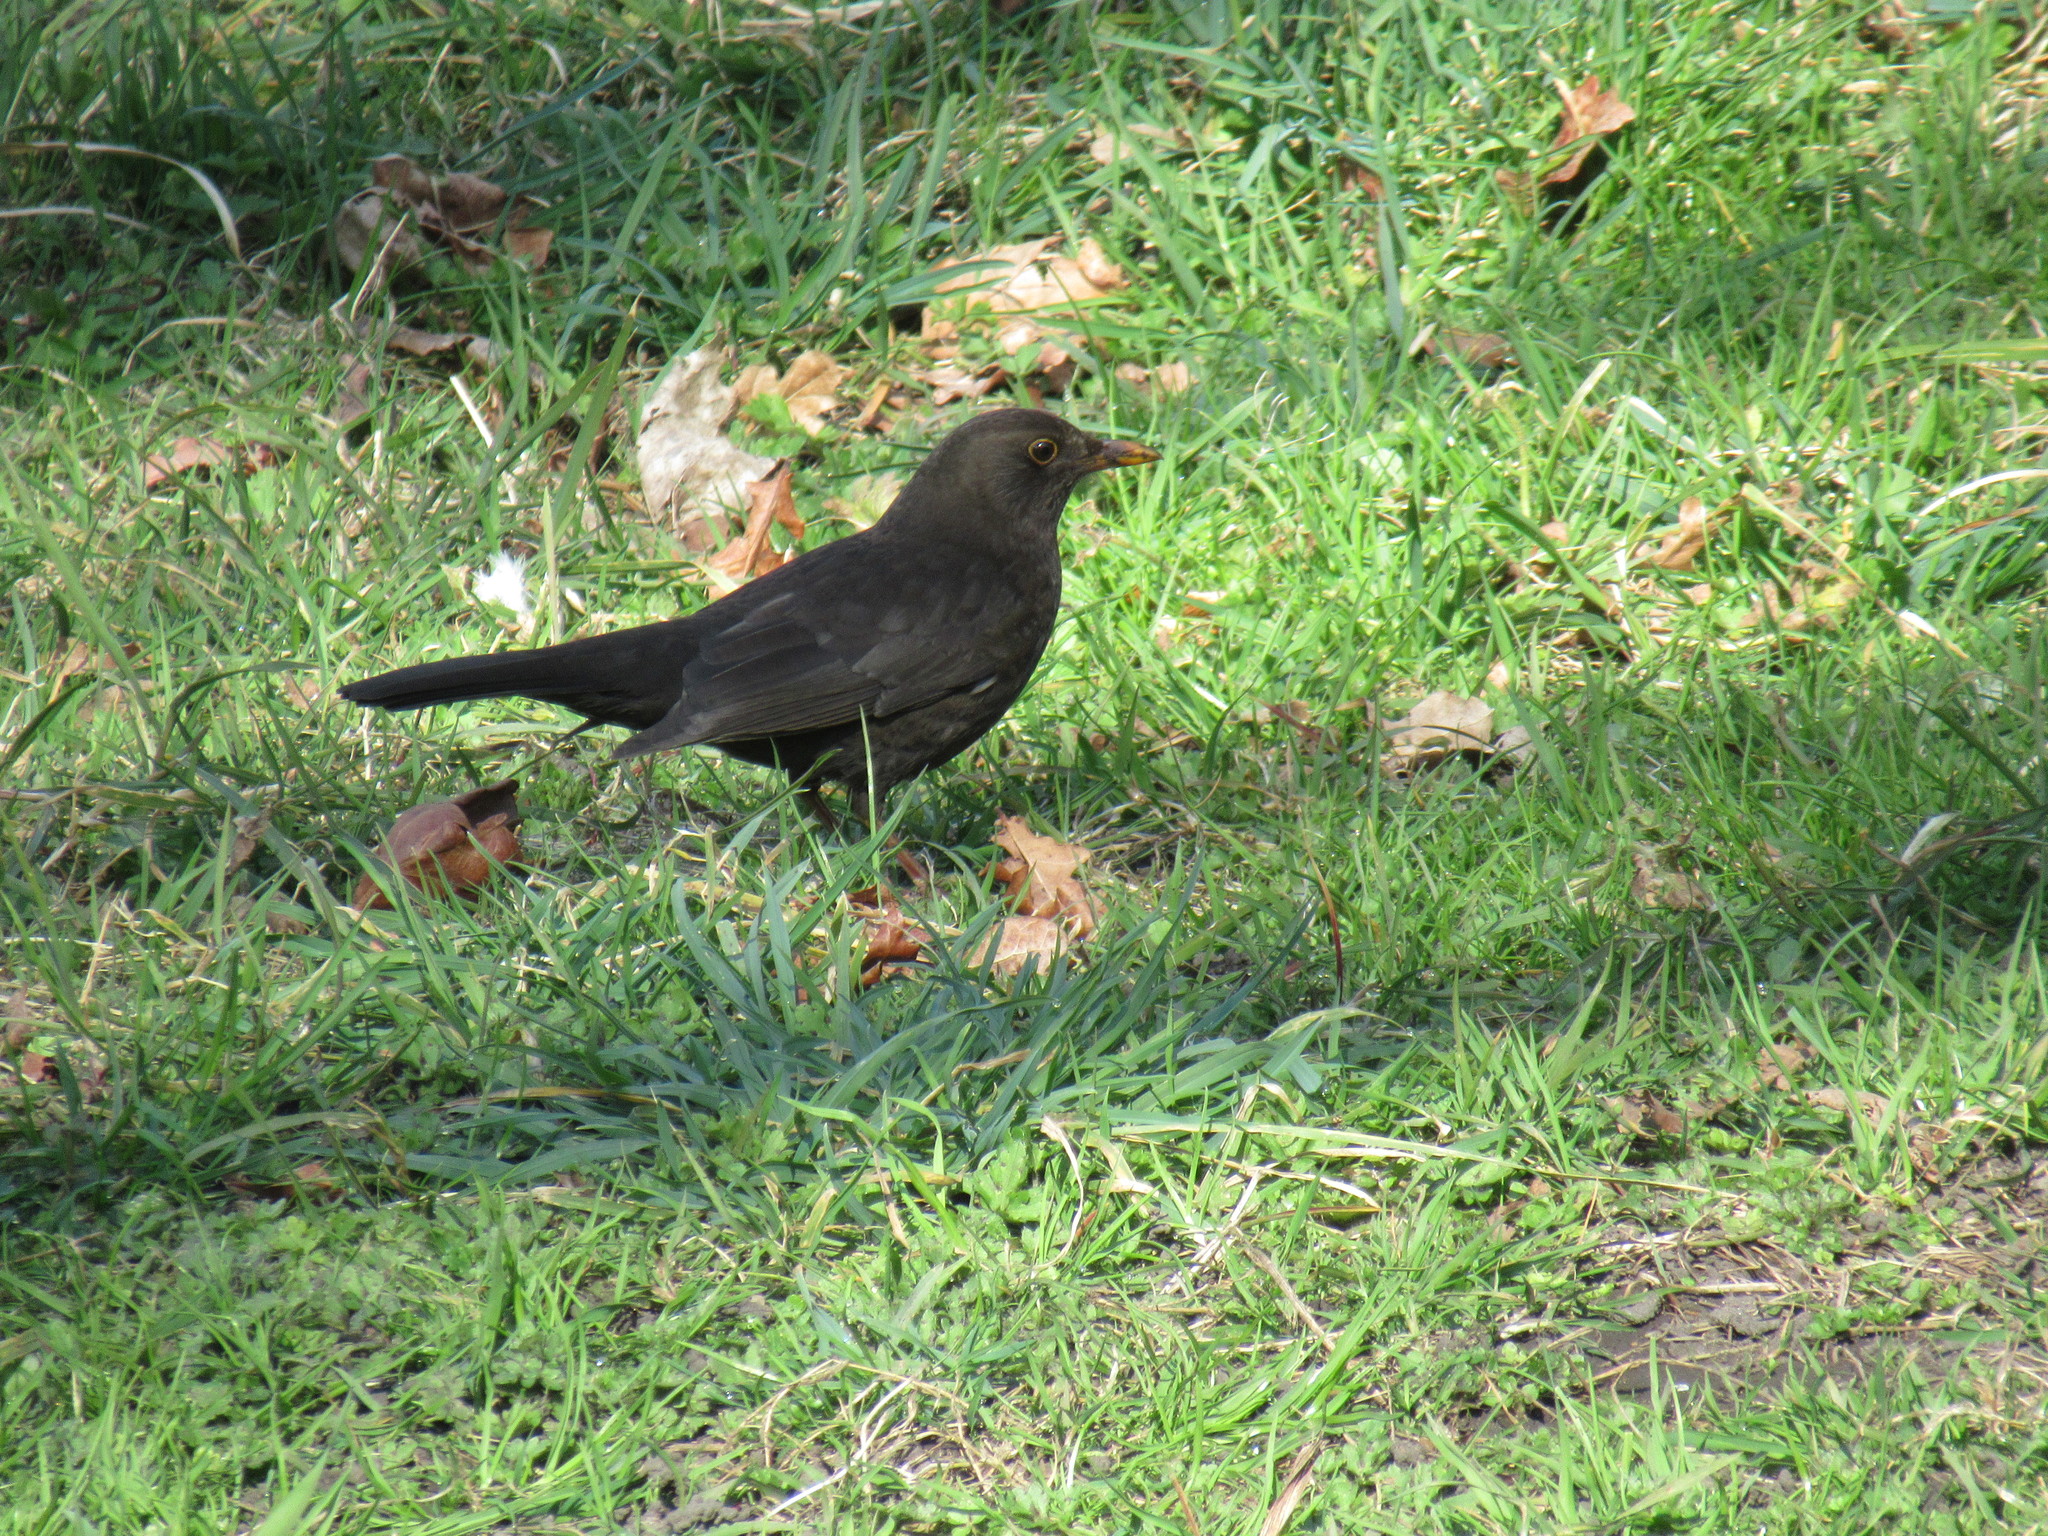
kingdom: Animalia
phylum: Chordata
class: Aves
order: Passeriformes
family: Turdidae
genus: Turdus
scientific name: Turdus merula
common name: Common blackbird
